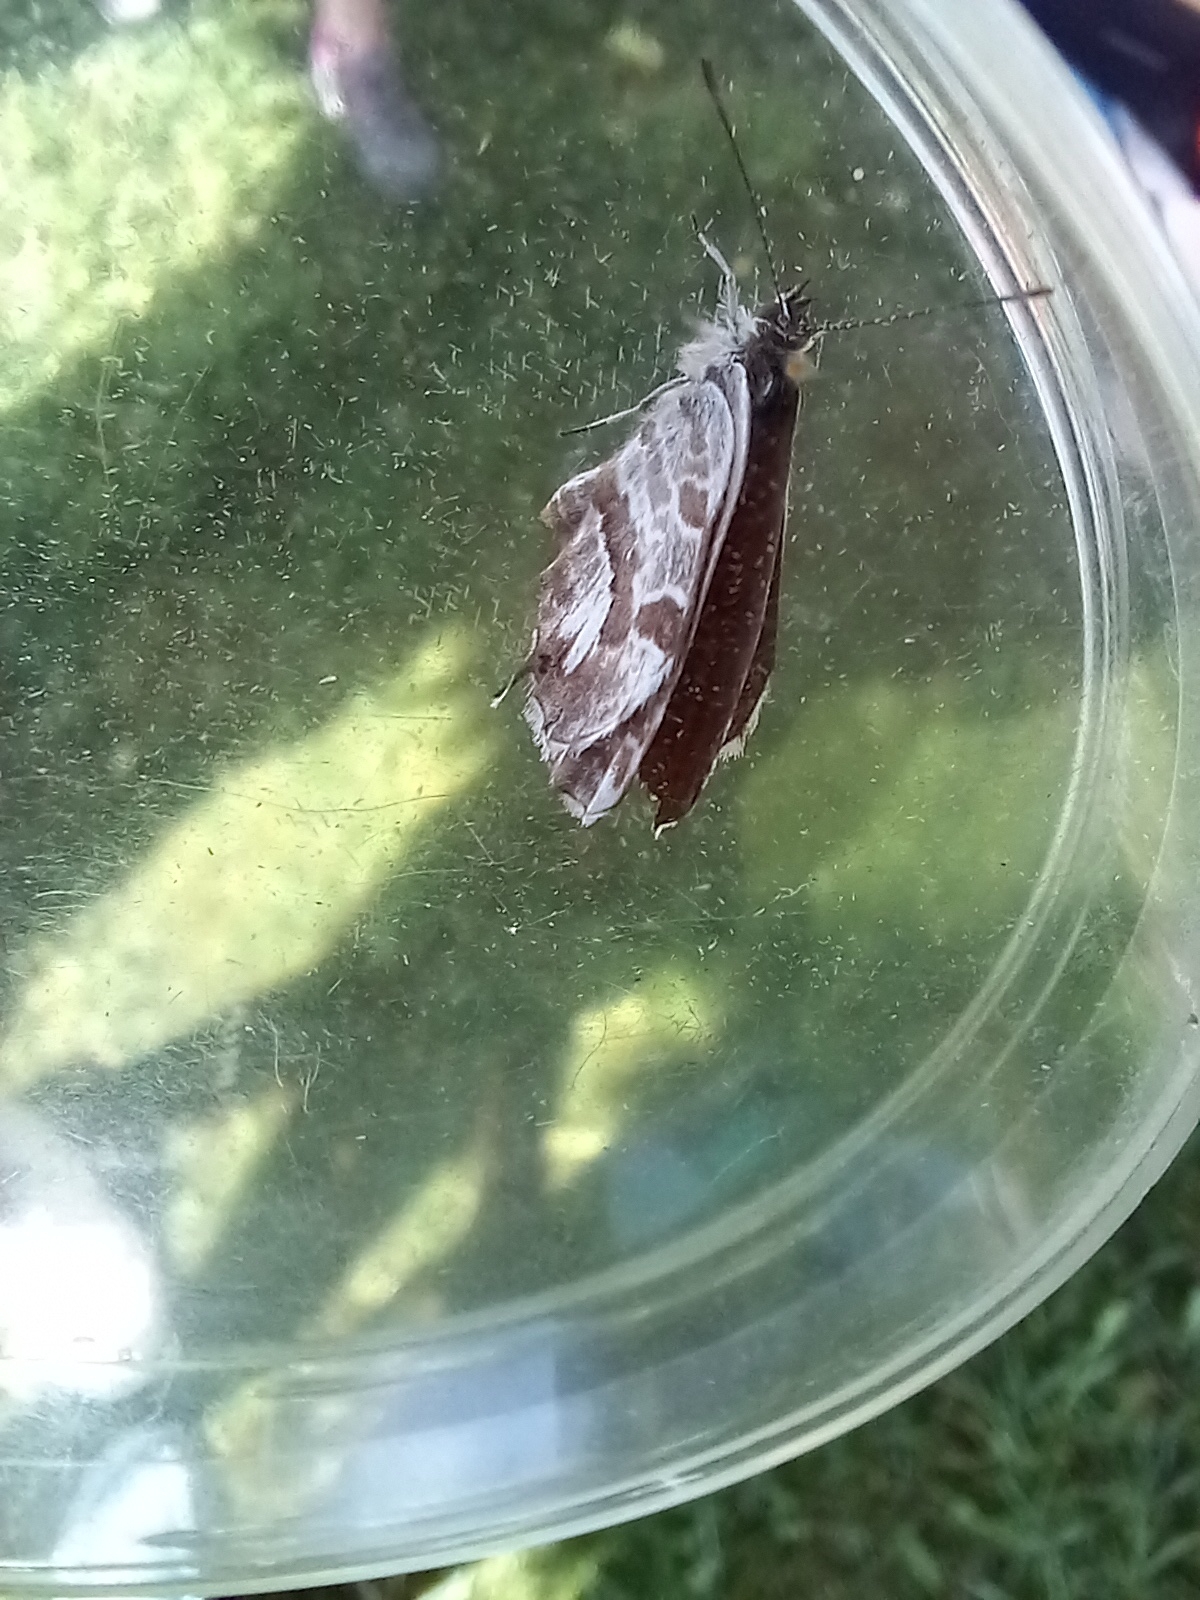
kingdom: Animalia
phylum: Arthropoda
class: Insecta
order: Lepidoptera
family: Lycaenidae
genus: Cacyreus
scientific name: Cacyreus marshalli
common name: Geranium bronze
